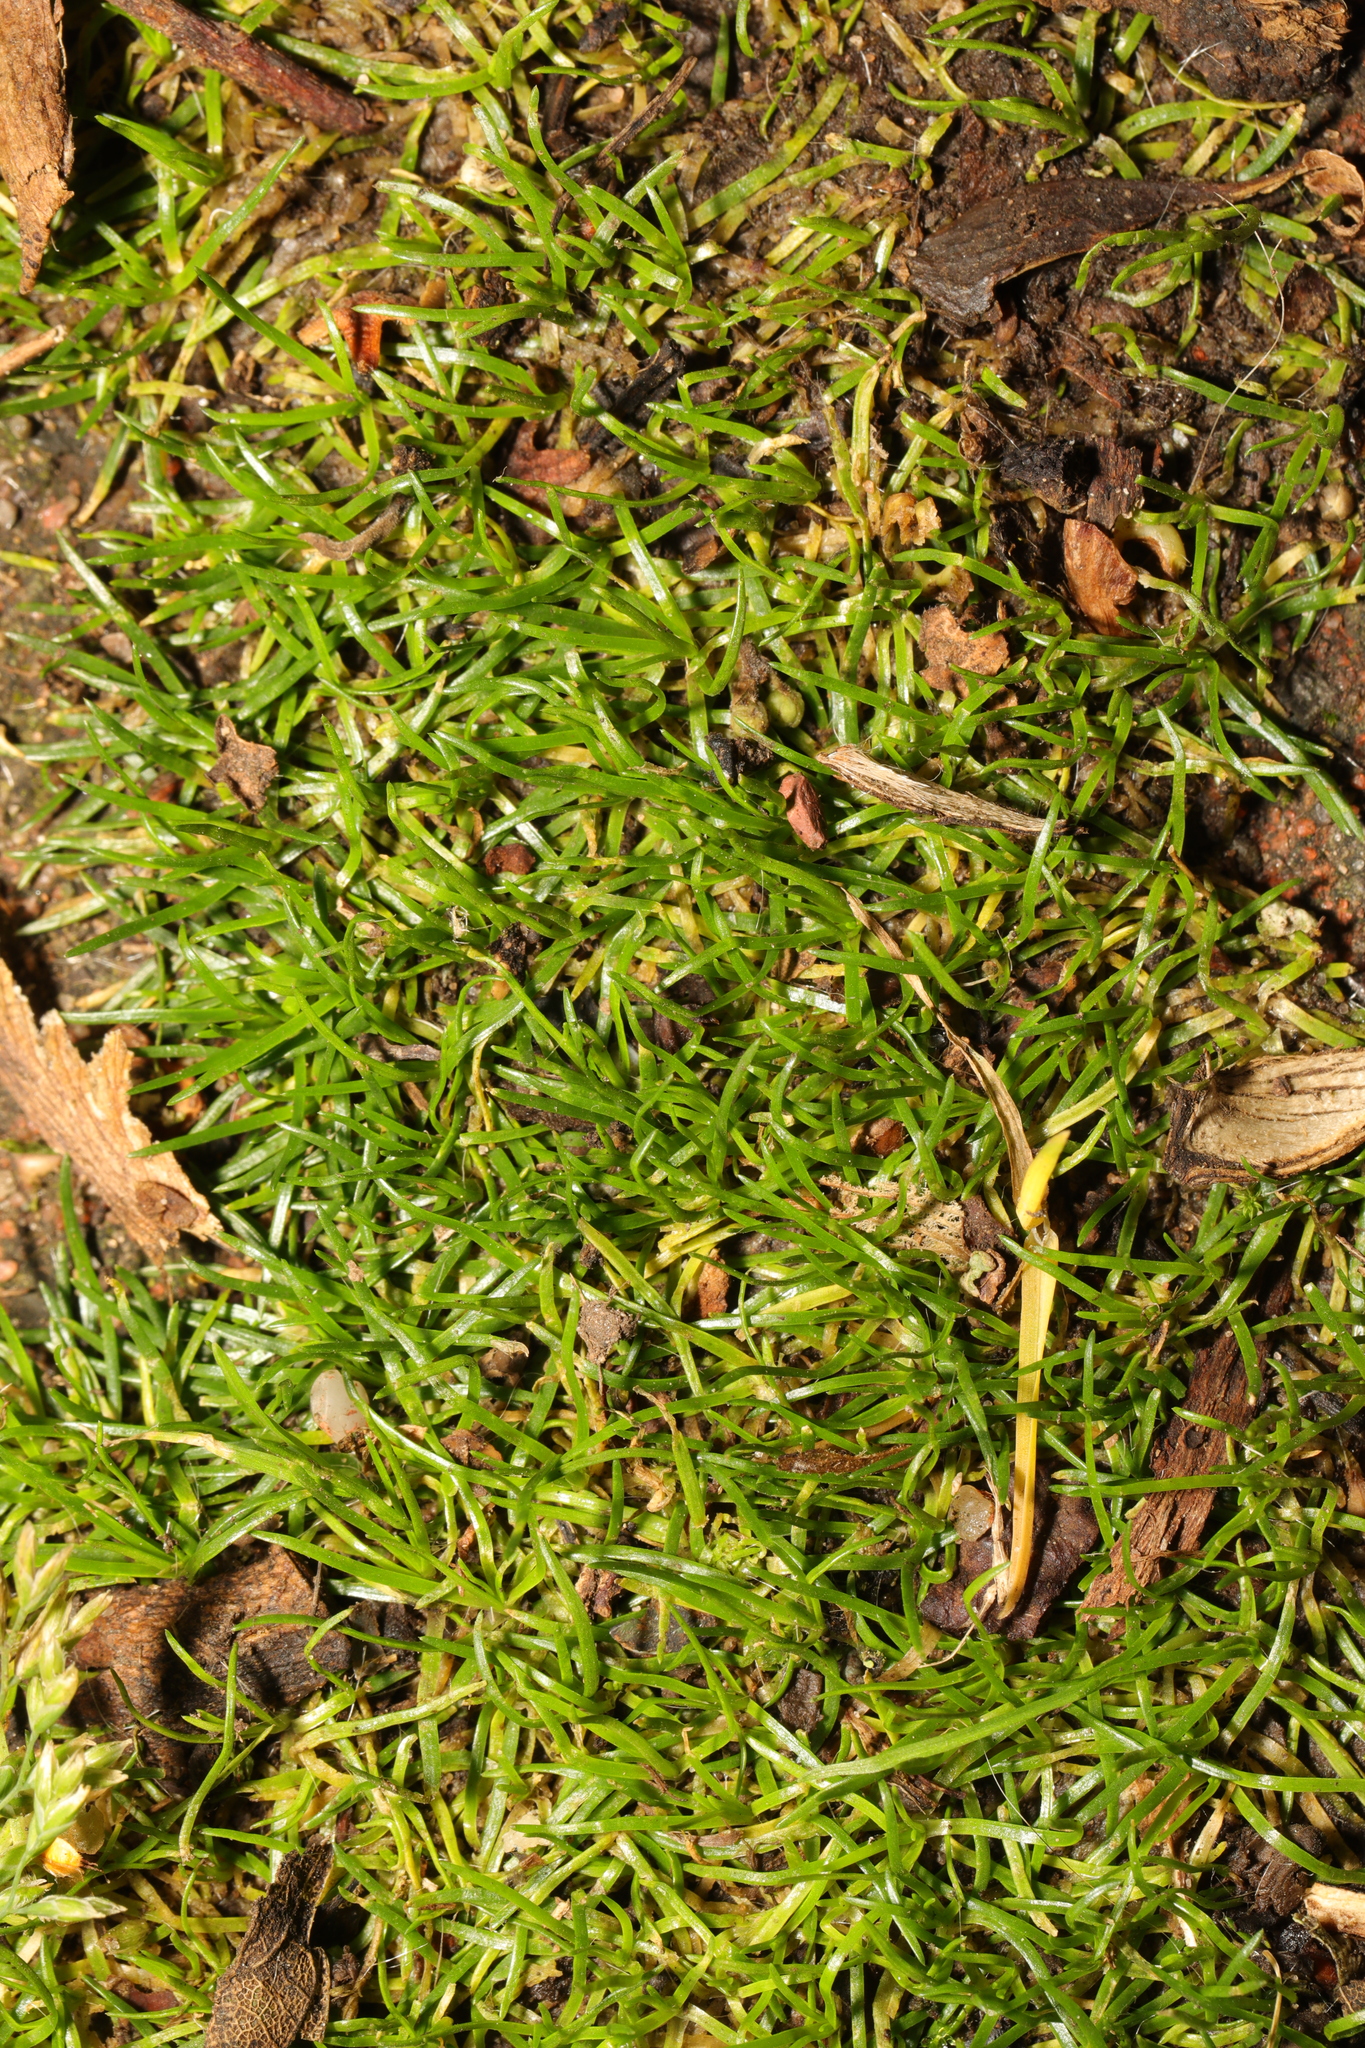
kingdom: Plantae
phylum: Tracheophyta
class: Magnoliopsida
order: Caryophyllales
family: Caryophyllaceae
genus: Sagina
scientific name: Sagina procumbens
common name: Procumbent pearlwort
